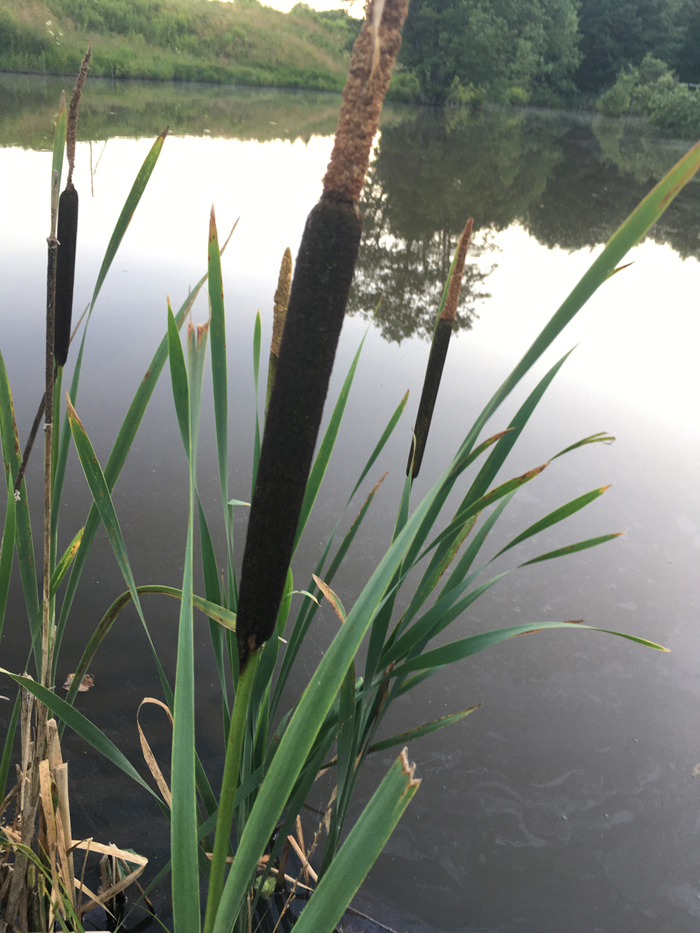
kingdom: Plantae
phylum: Tracheophyta
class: Liliopsida
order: Poales
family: Typhaceae
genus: Typha
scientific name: Typha latifolia
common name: Broadleaf cattail
